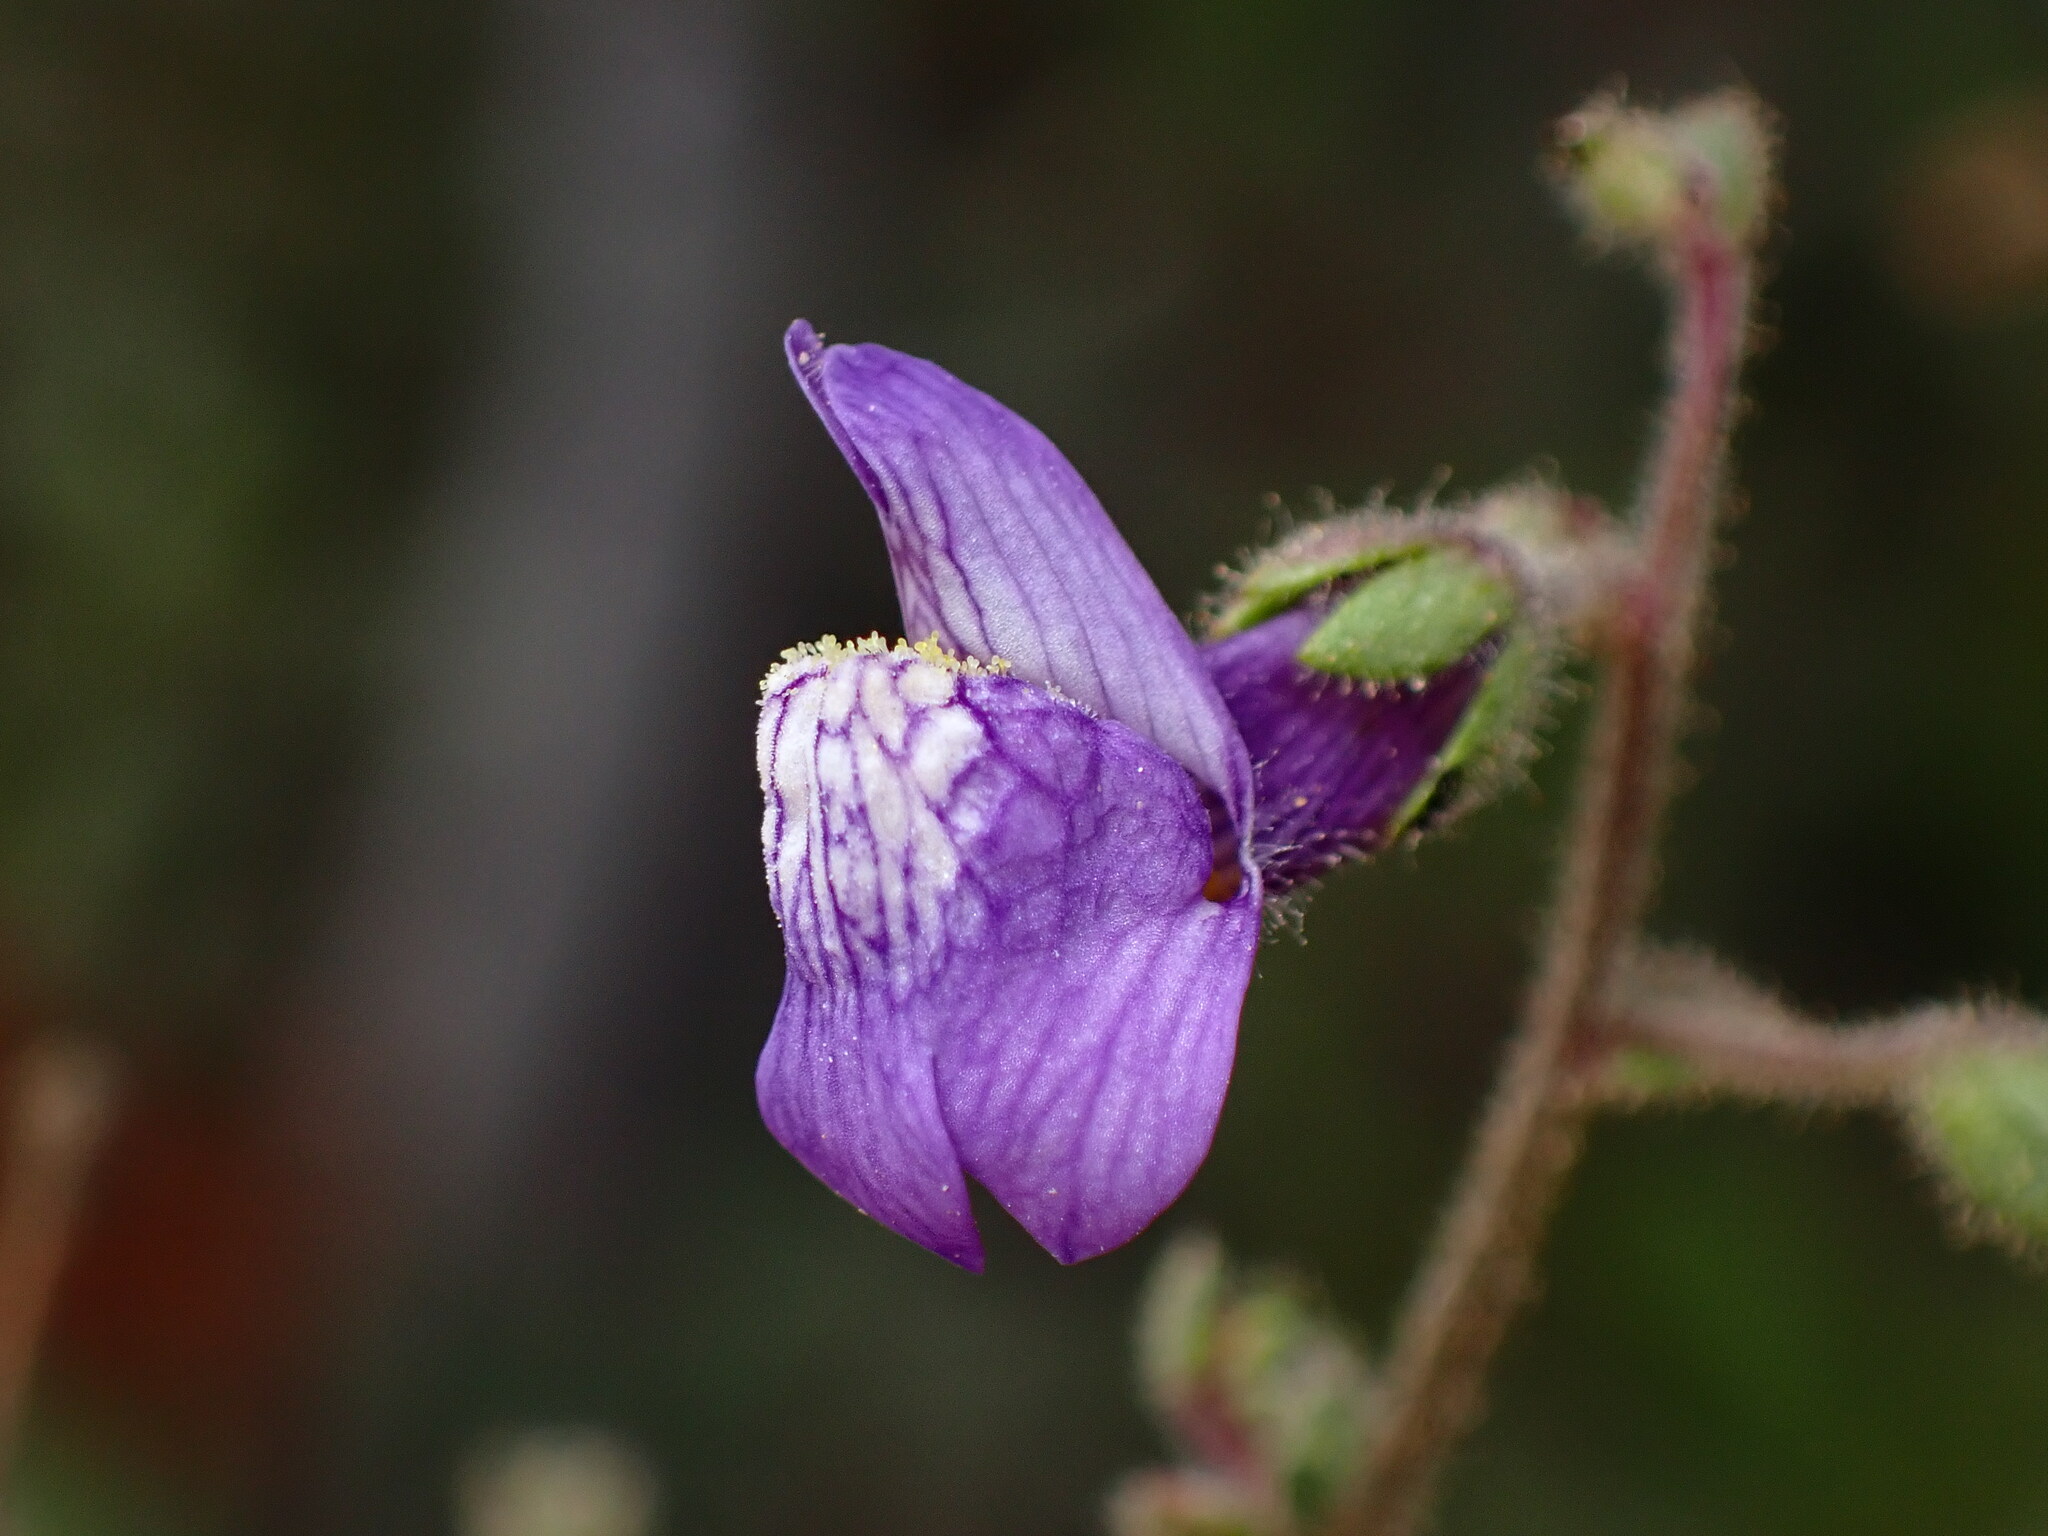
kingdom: Plantae
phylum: Tracheophyta
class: Magnoliopsida
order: Lamiales
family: Plantaginaceae
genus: Sairocarpus
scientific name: Sairocarpus nuttallianus
